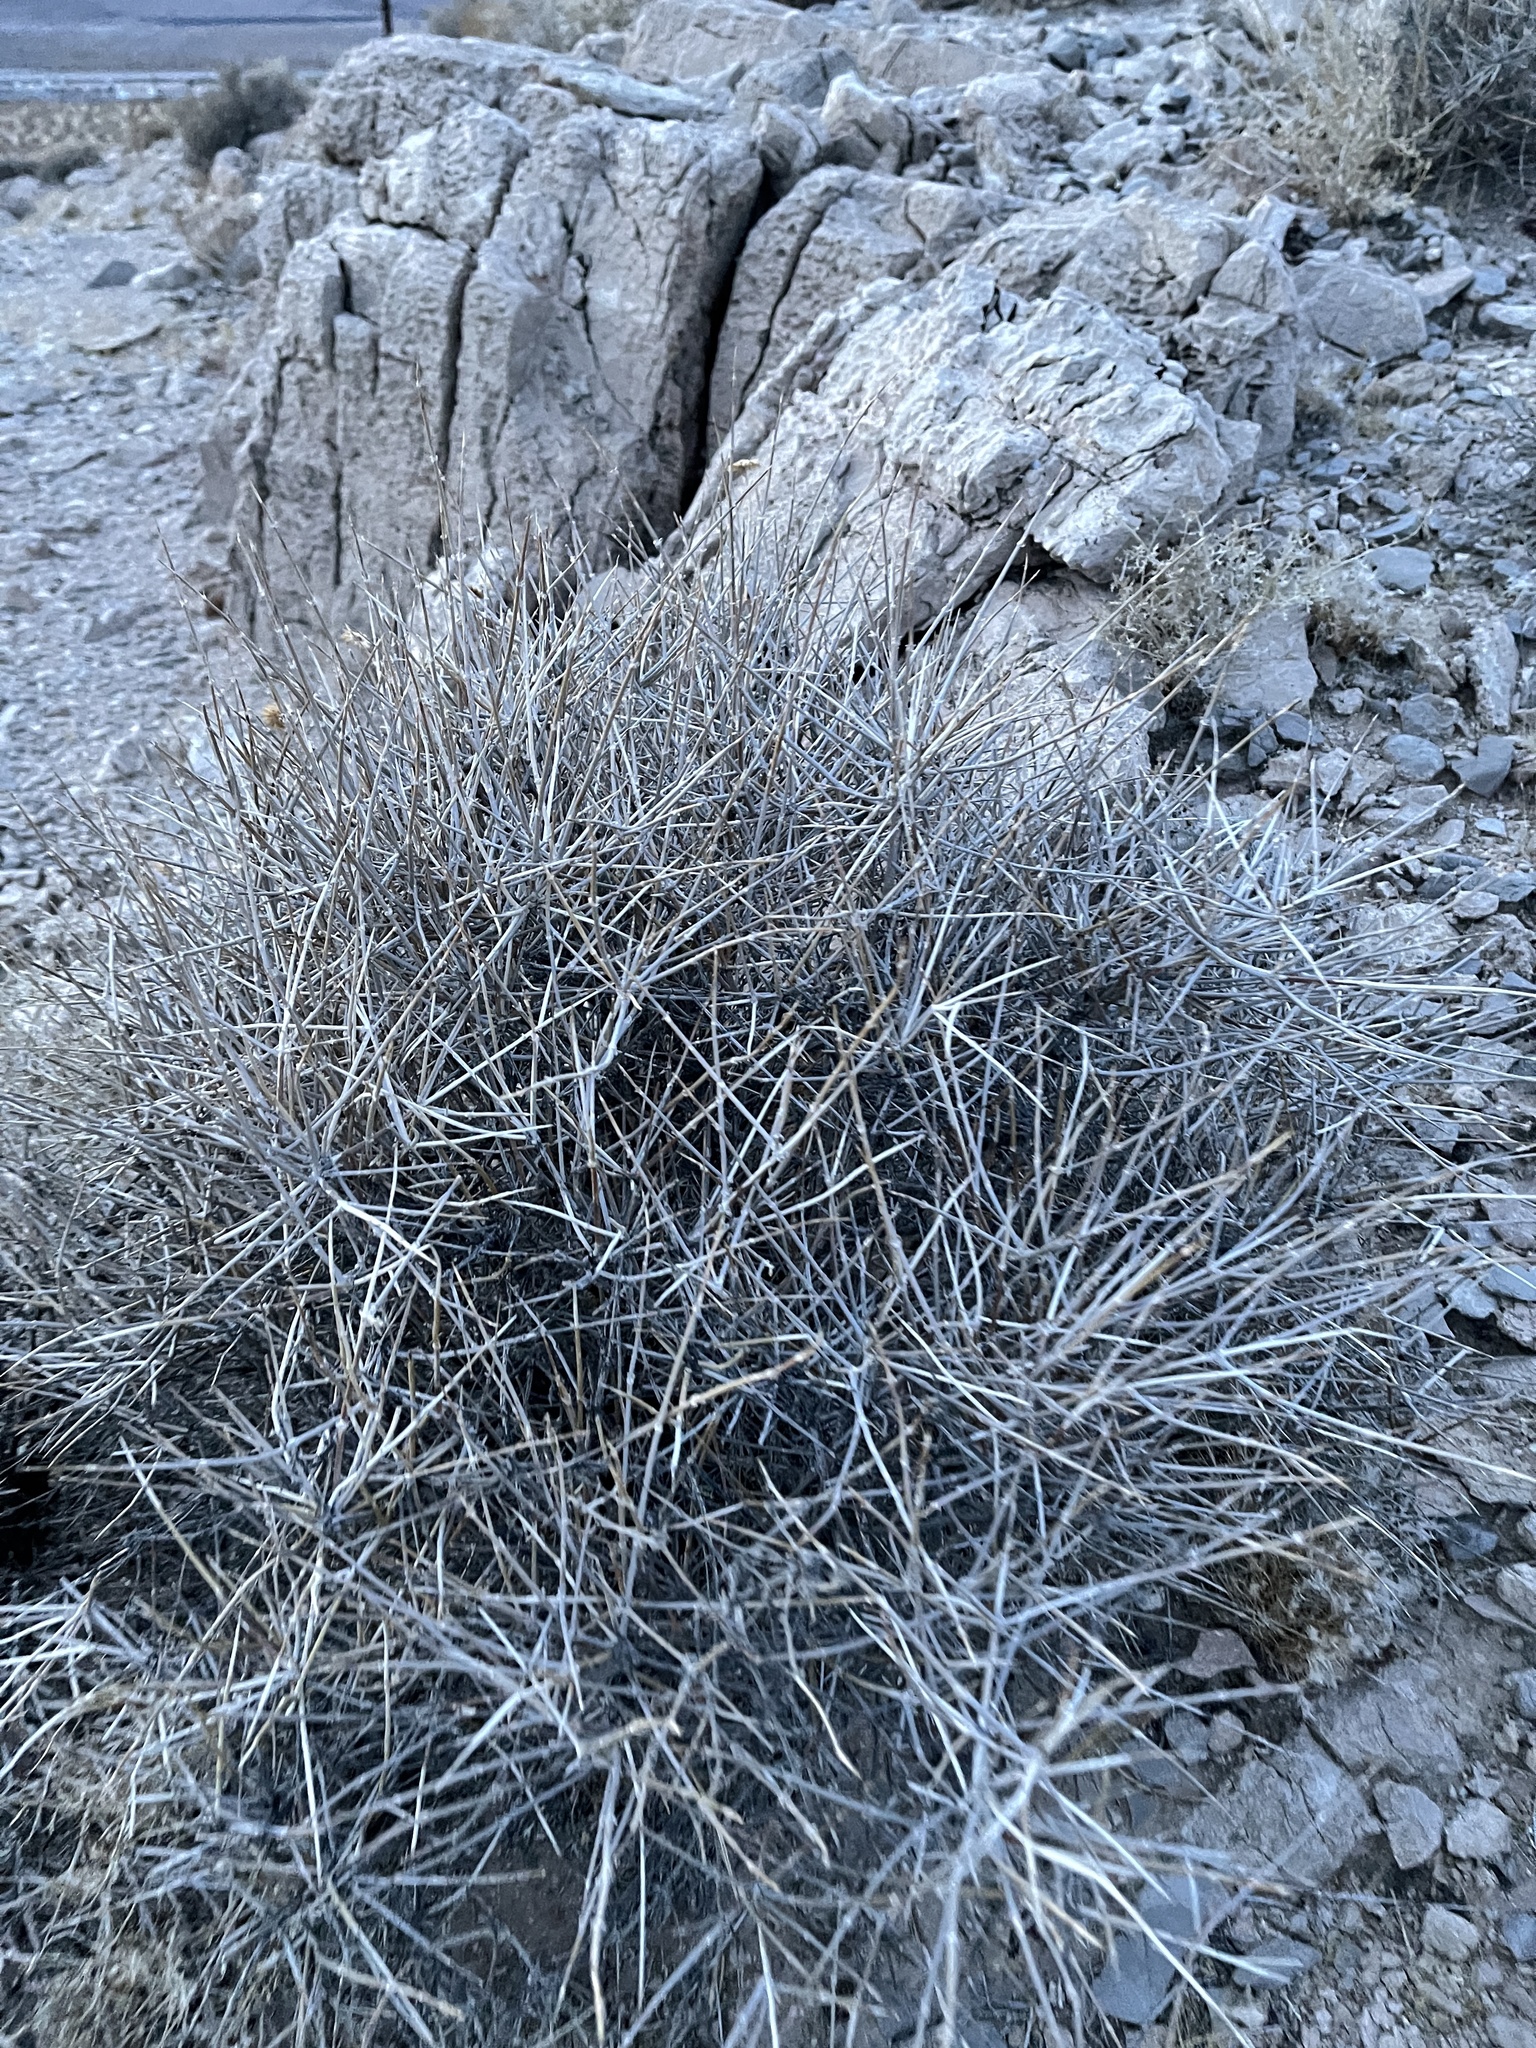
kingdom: Plantae
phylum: Tracheophyta
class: Gnetopsida
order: Ephedrales
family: Ephedraceae
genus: Ephedra
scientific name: Ephedra nevadensis
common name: Gray ephedra
